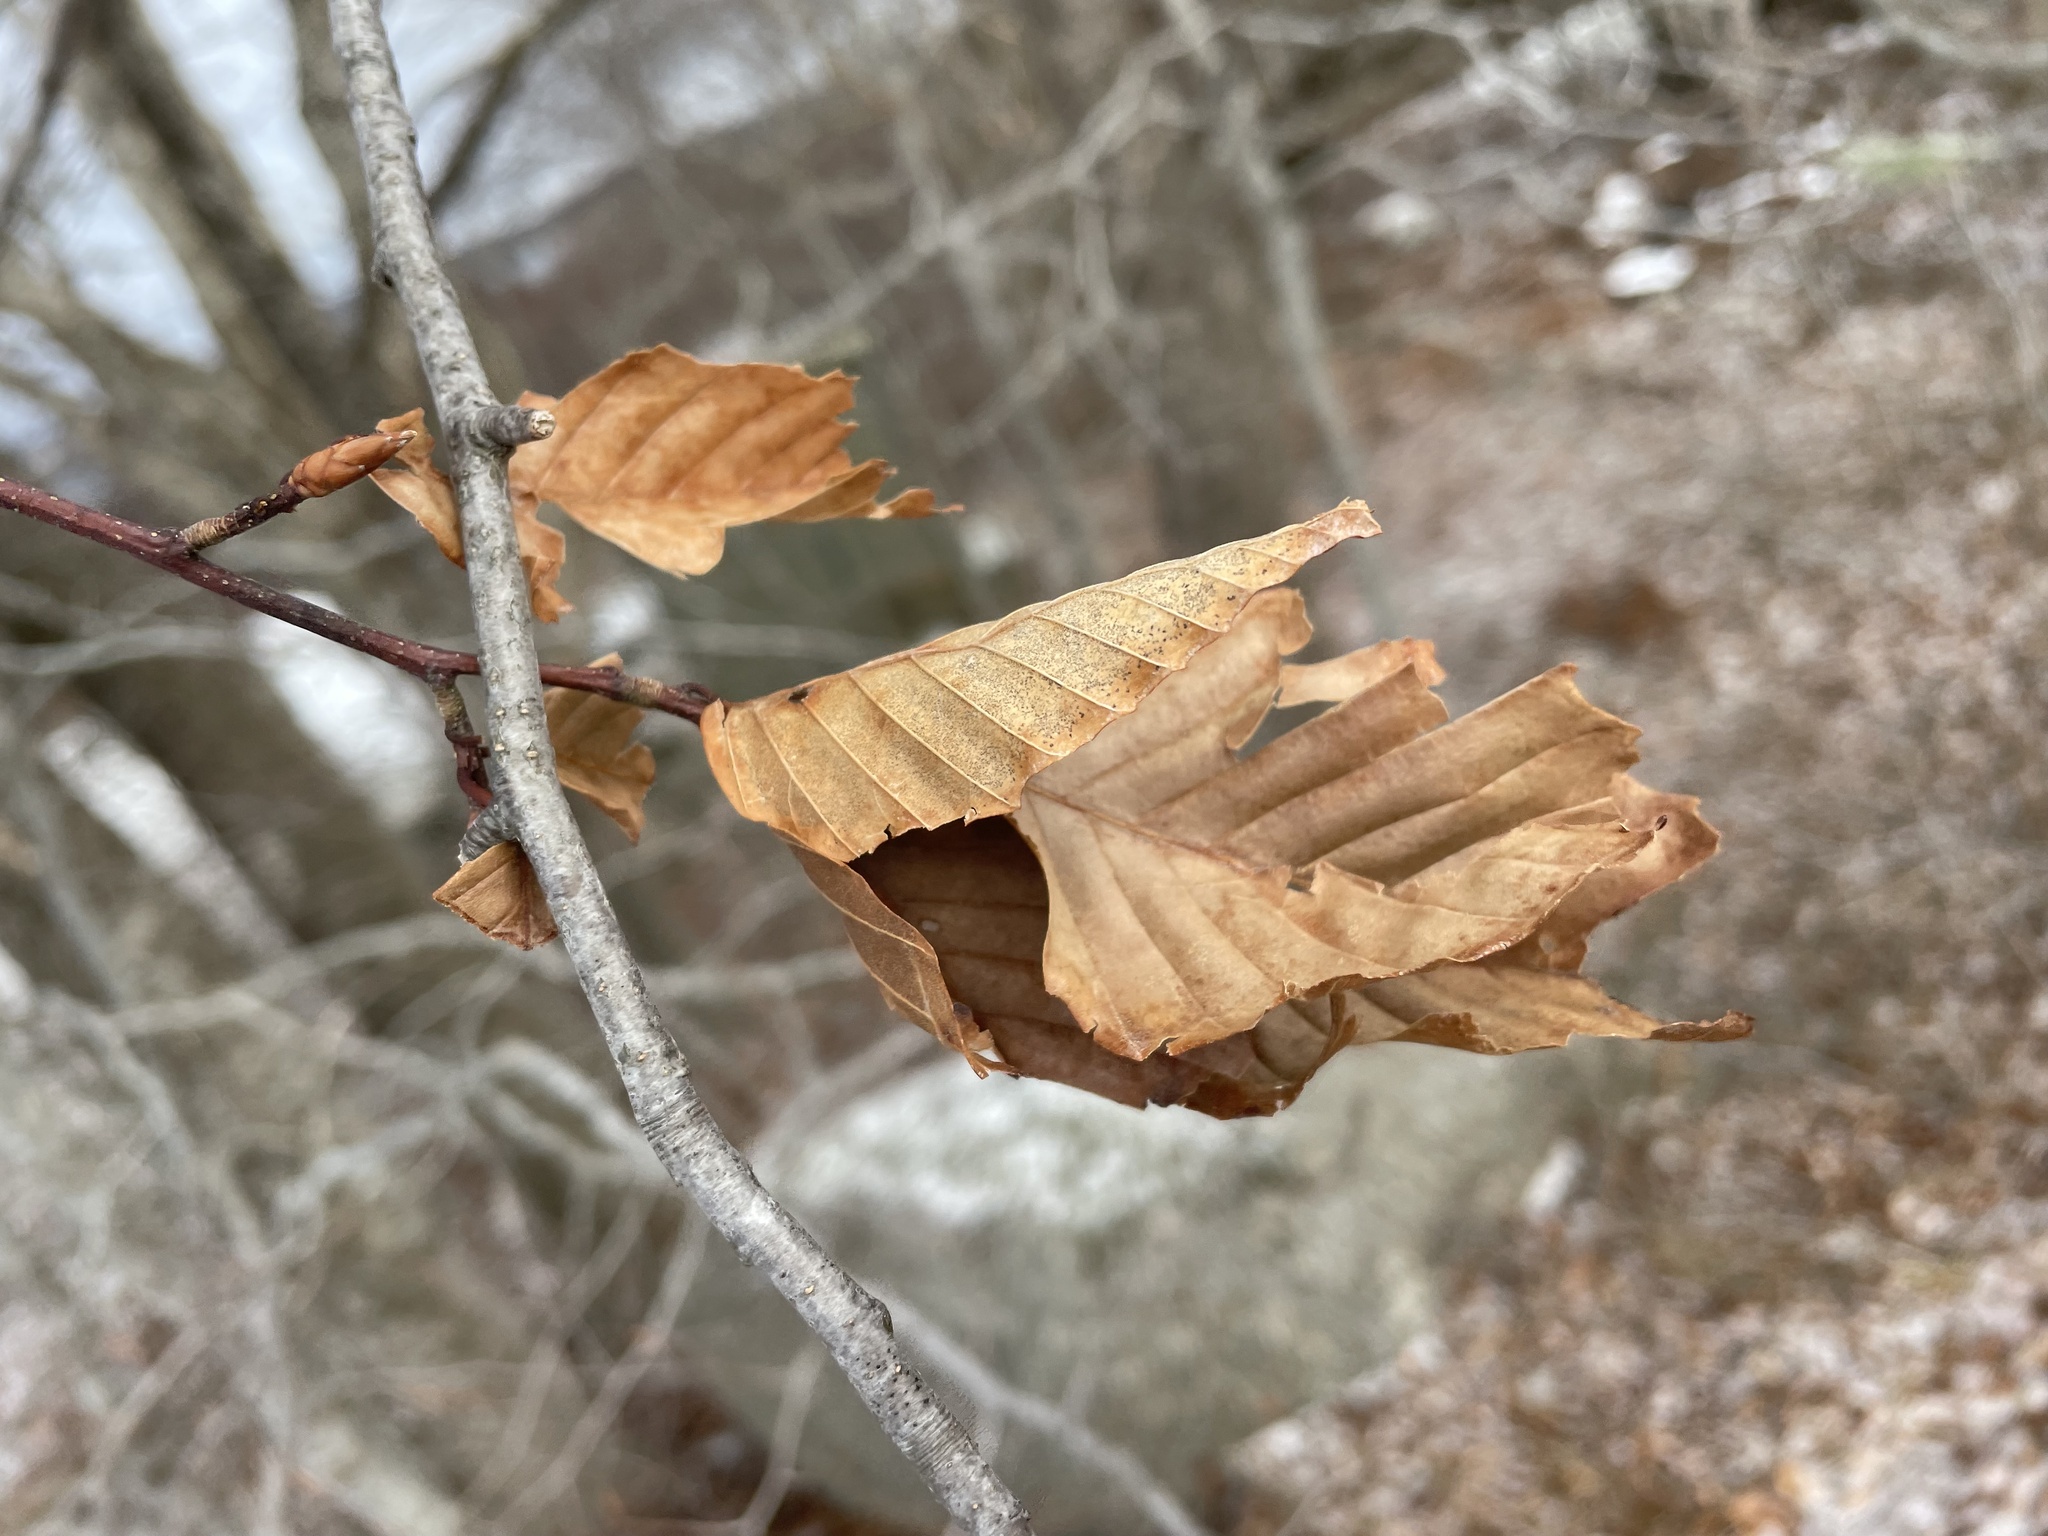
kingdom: Plantae
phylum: Tracheophyta
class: Magnoliopsida
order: Fagales
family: Fagaceae
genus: Fagus
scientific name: Fagus grandifolia
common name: American beech
